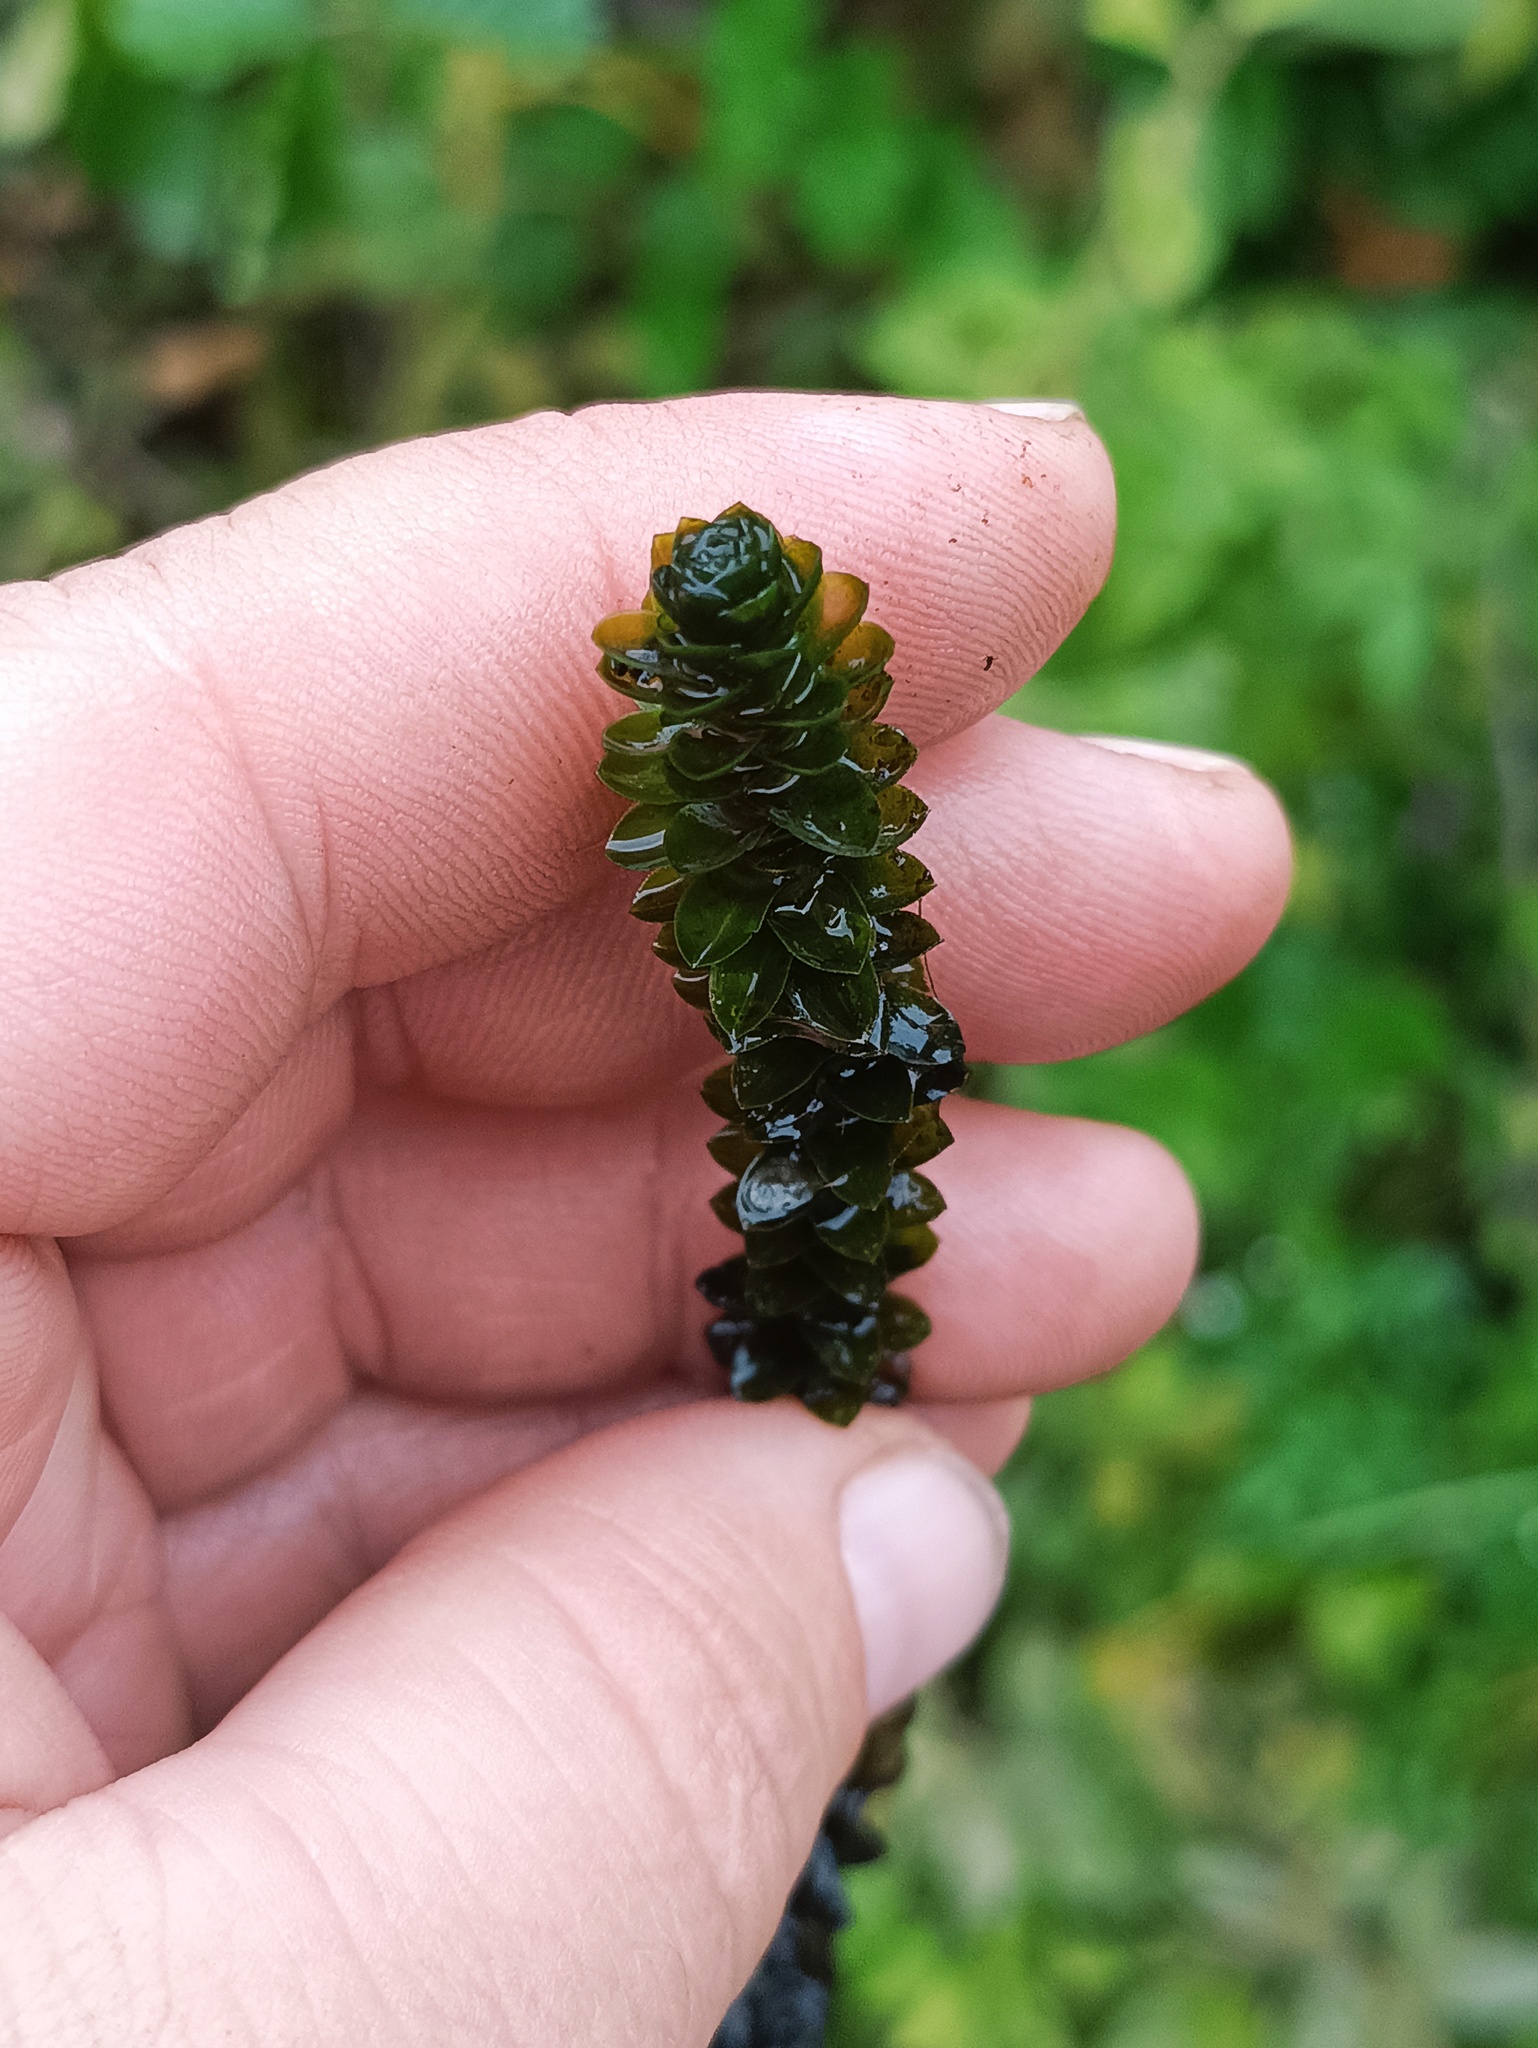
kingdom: Plantae
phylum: Tracheophyta
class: Liliopsida
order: Alismatales
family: Hydrocharitaceae
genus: Elodea
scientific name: Elodea canadensis
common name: Canadian waterweed
